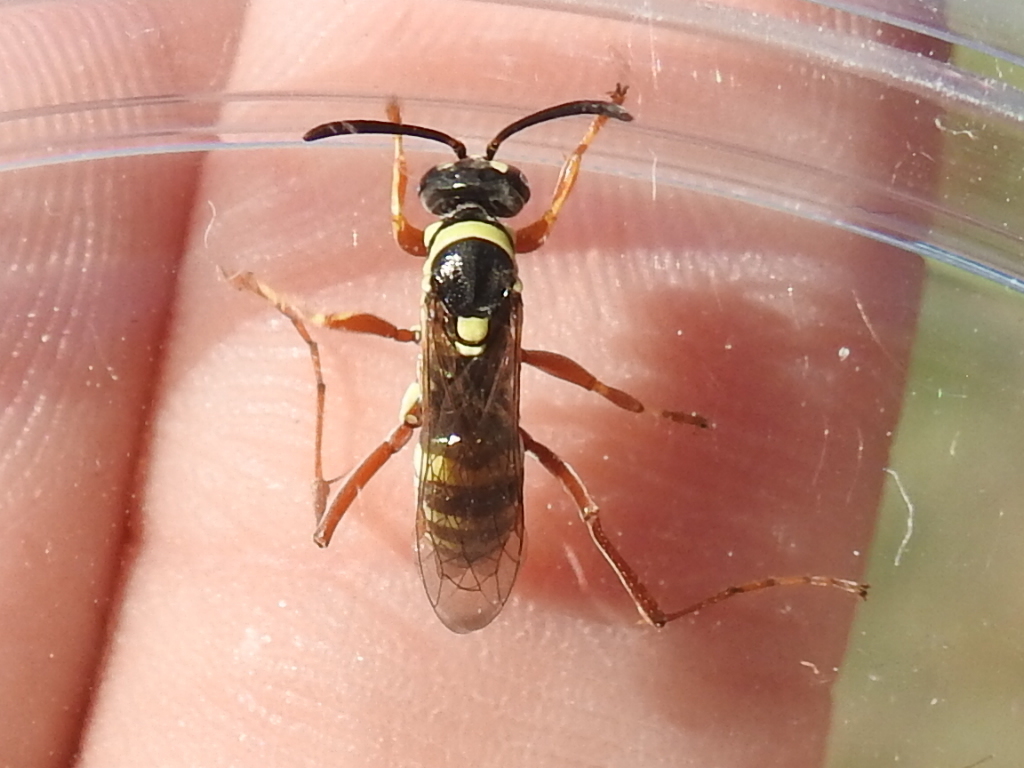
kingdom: Animalia
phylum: Arthropoda
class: Insecta
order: Hymenoptera
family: Pompilidae
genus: Ceropales
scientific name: Ceropales maculata
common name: Spider wasp
